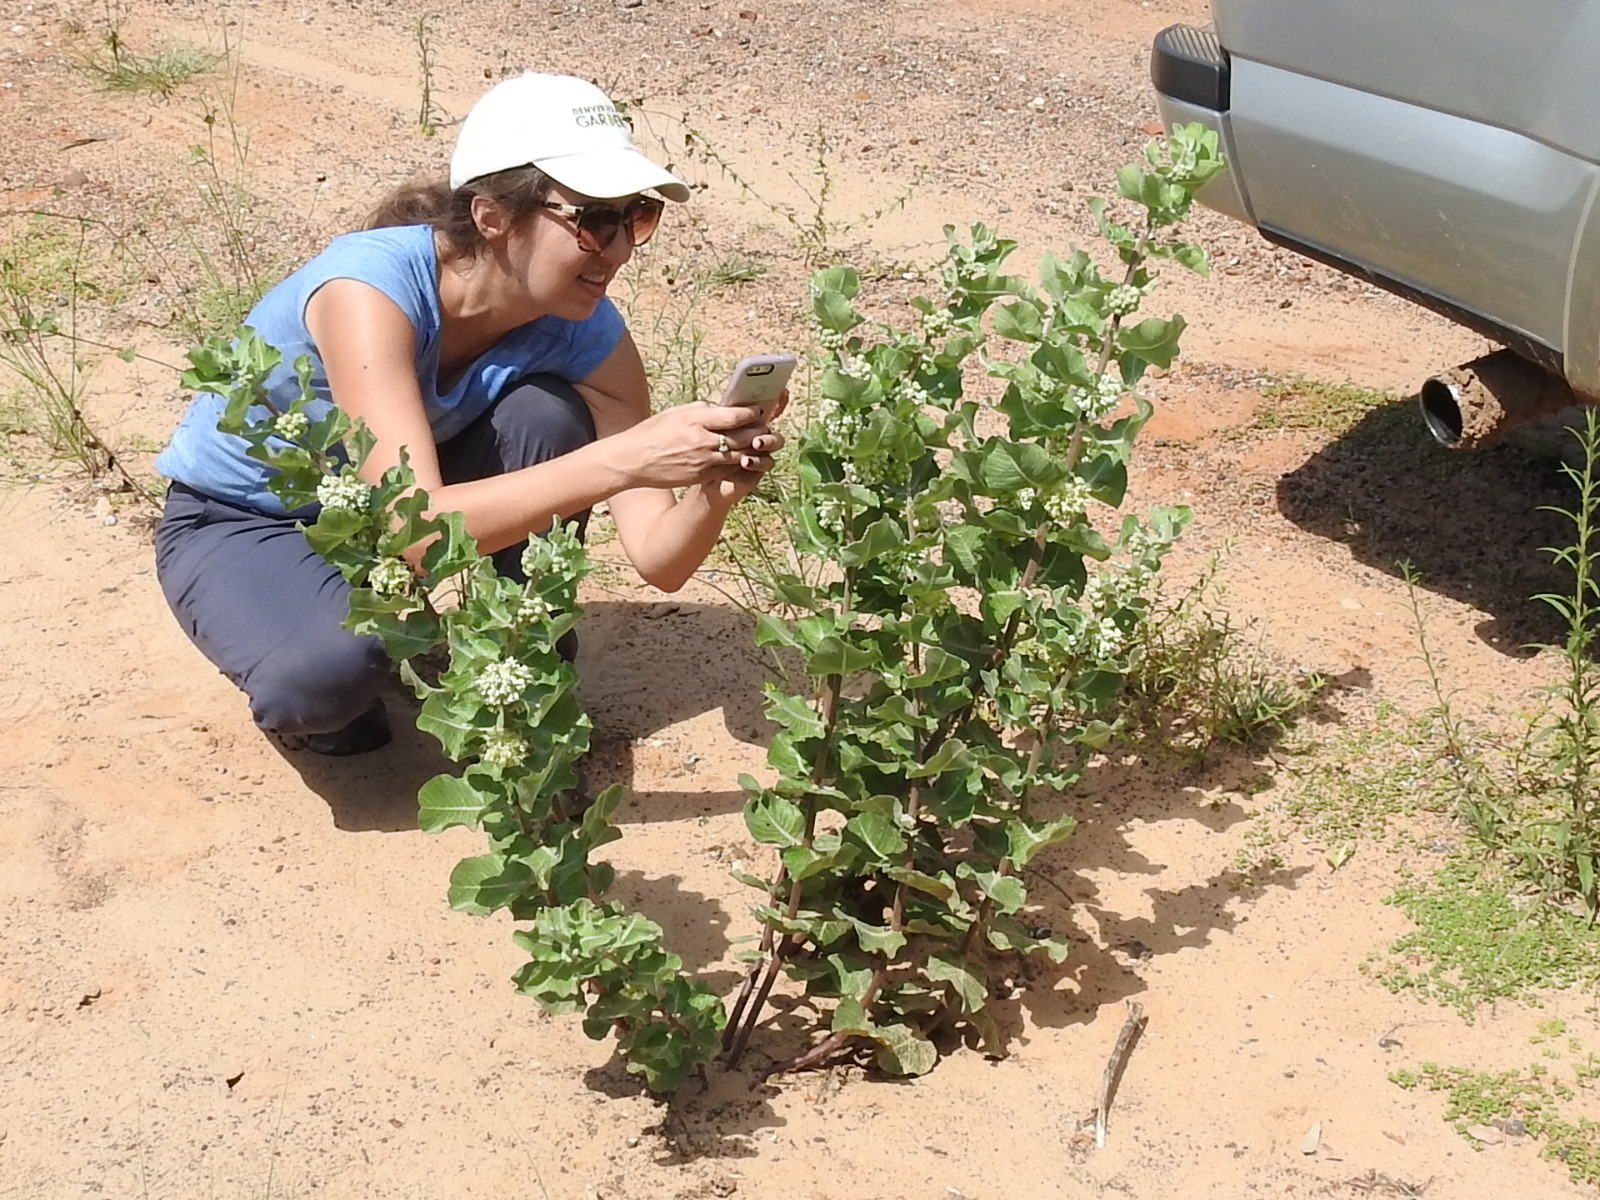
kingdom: Plantae
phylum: Tracheophyta
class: Magnoliopsida
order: Gentianales
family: Apocynaceae
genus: Asclepias
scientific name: Asclepias arenaria
